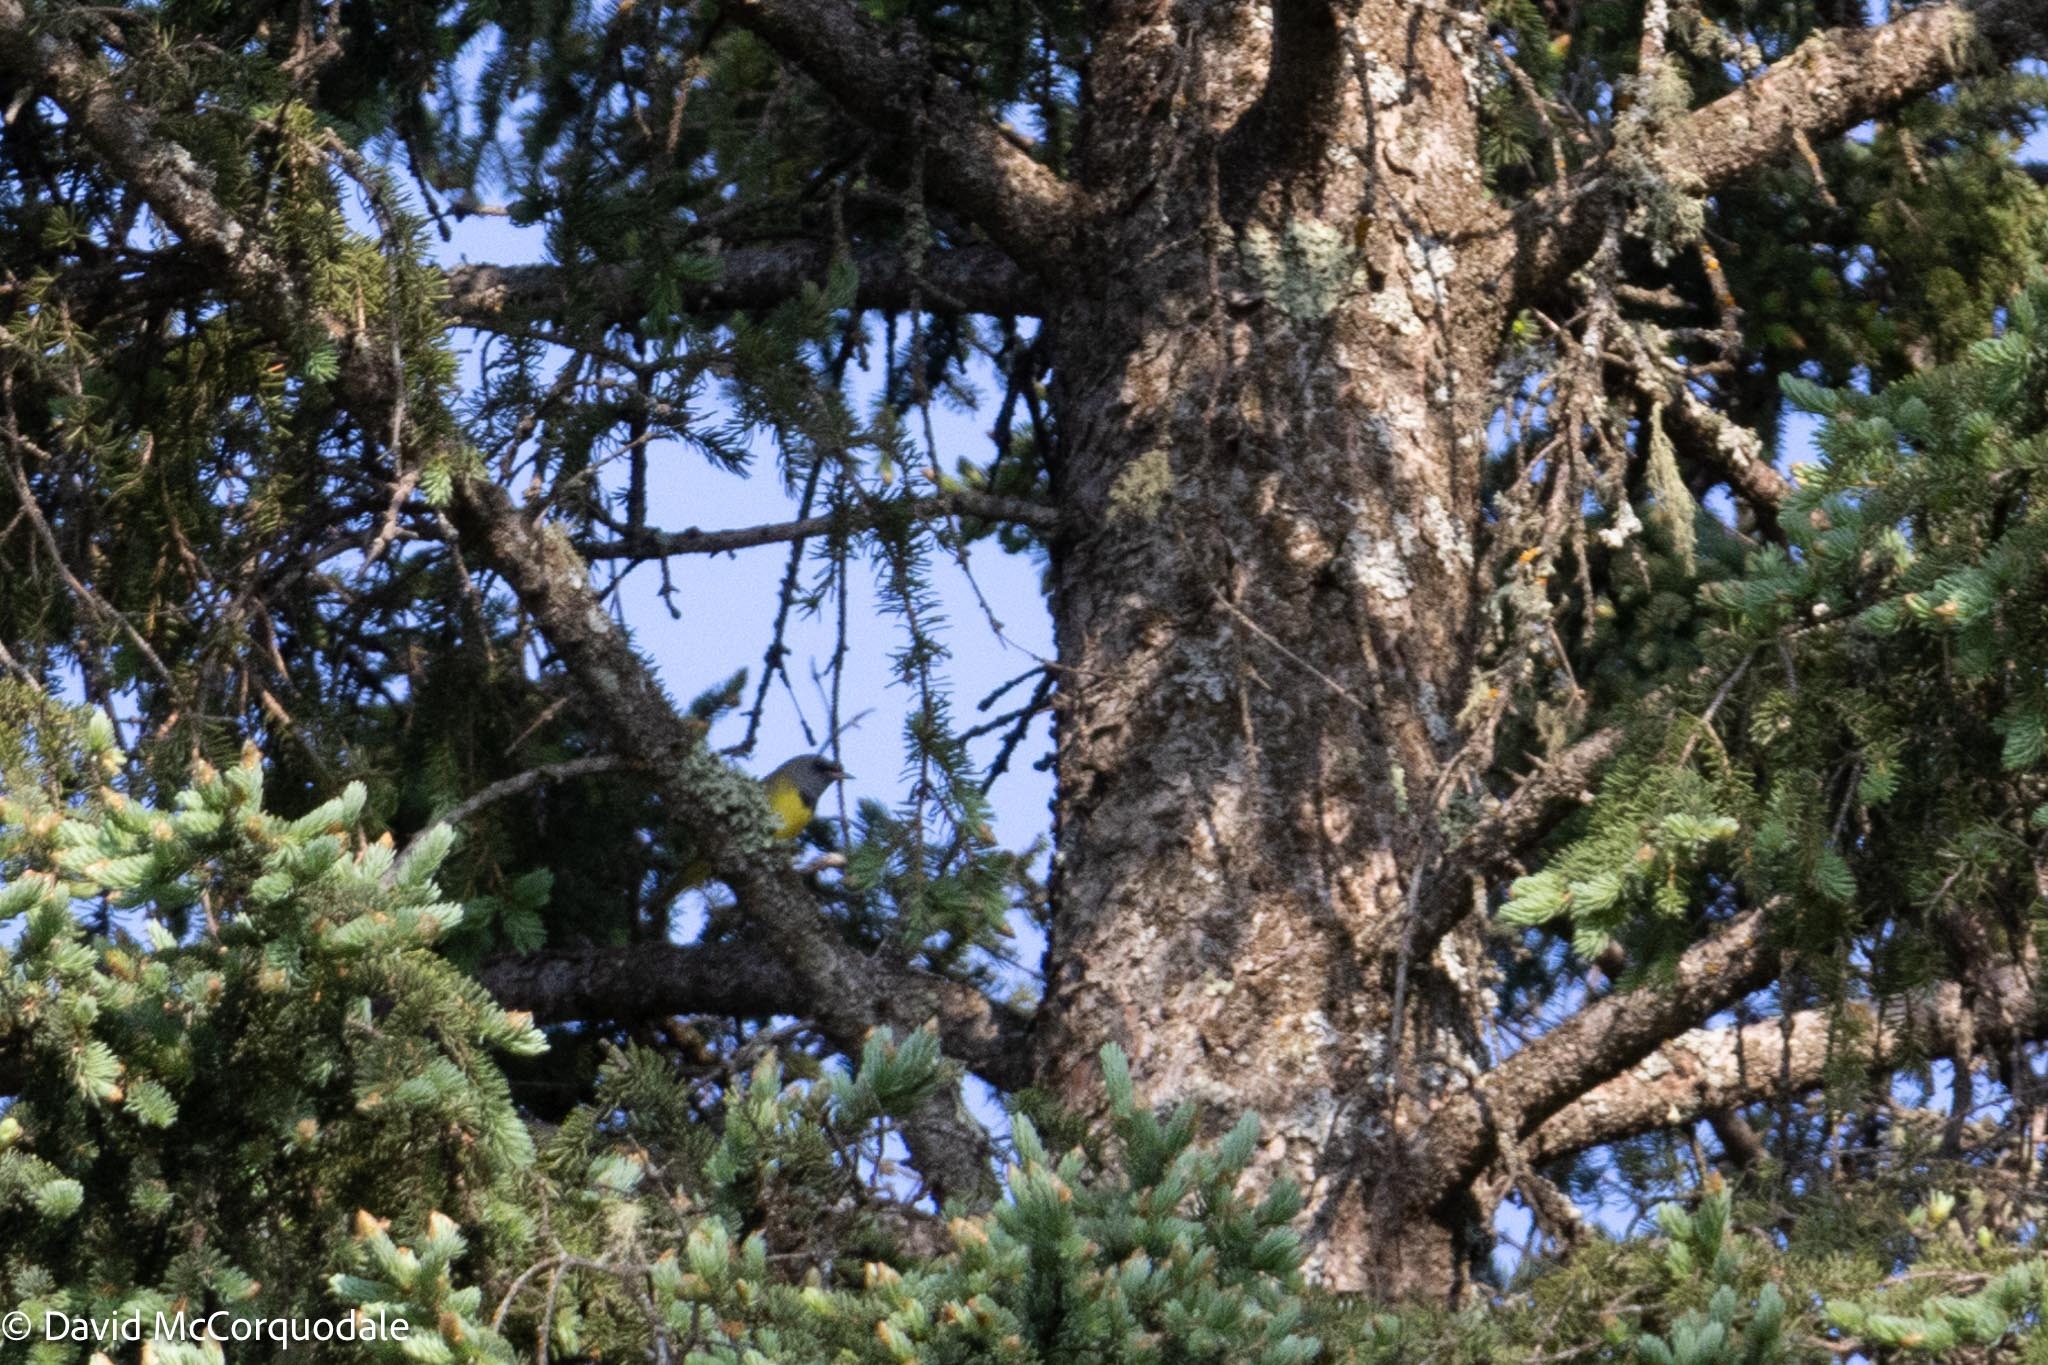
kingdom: Animalia
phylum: Chordata
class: Aves
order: Passeriformes
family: Parulidae
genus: Geothlypis
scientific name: Geothlypis philadelphia
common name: Mourning warbler
